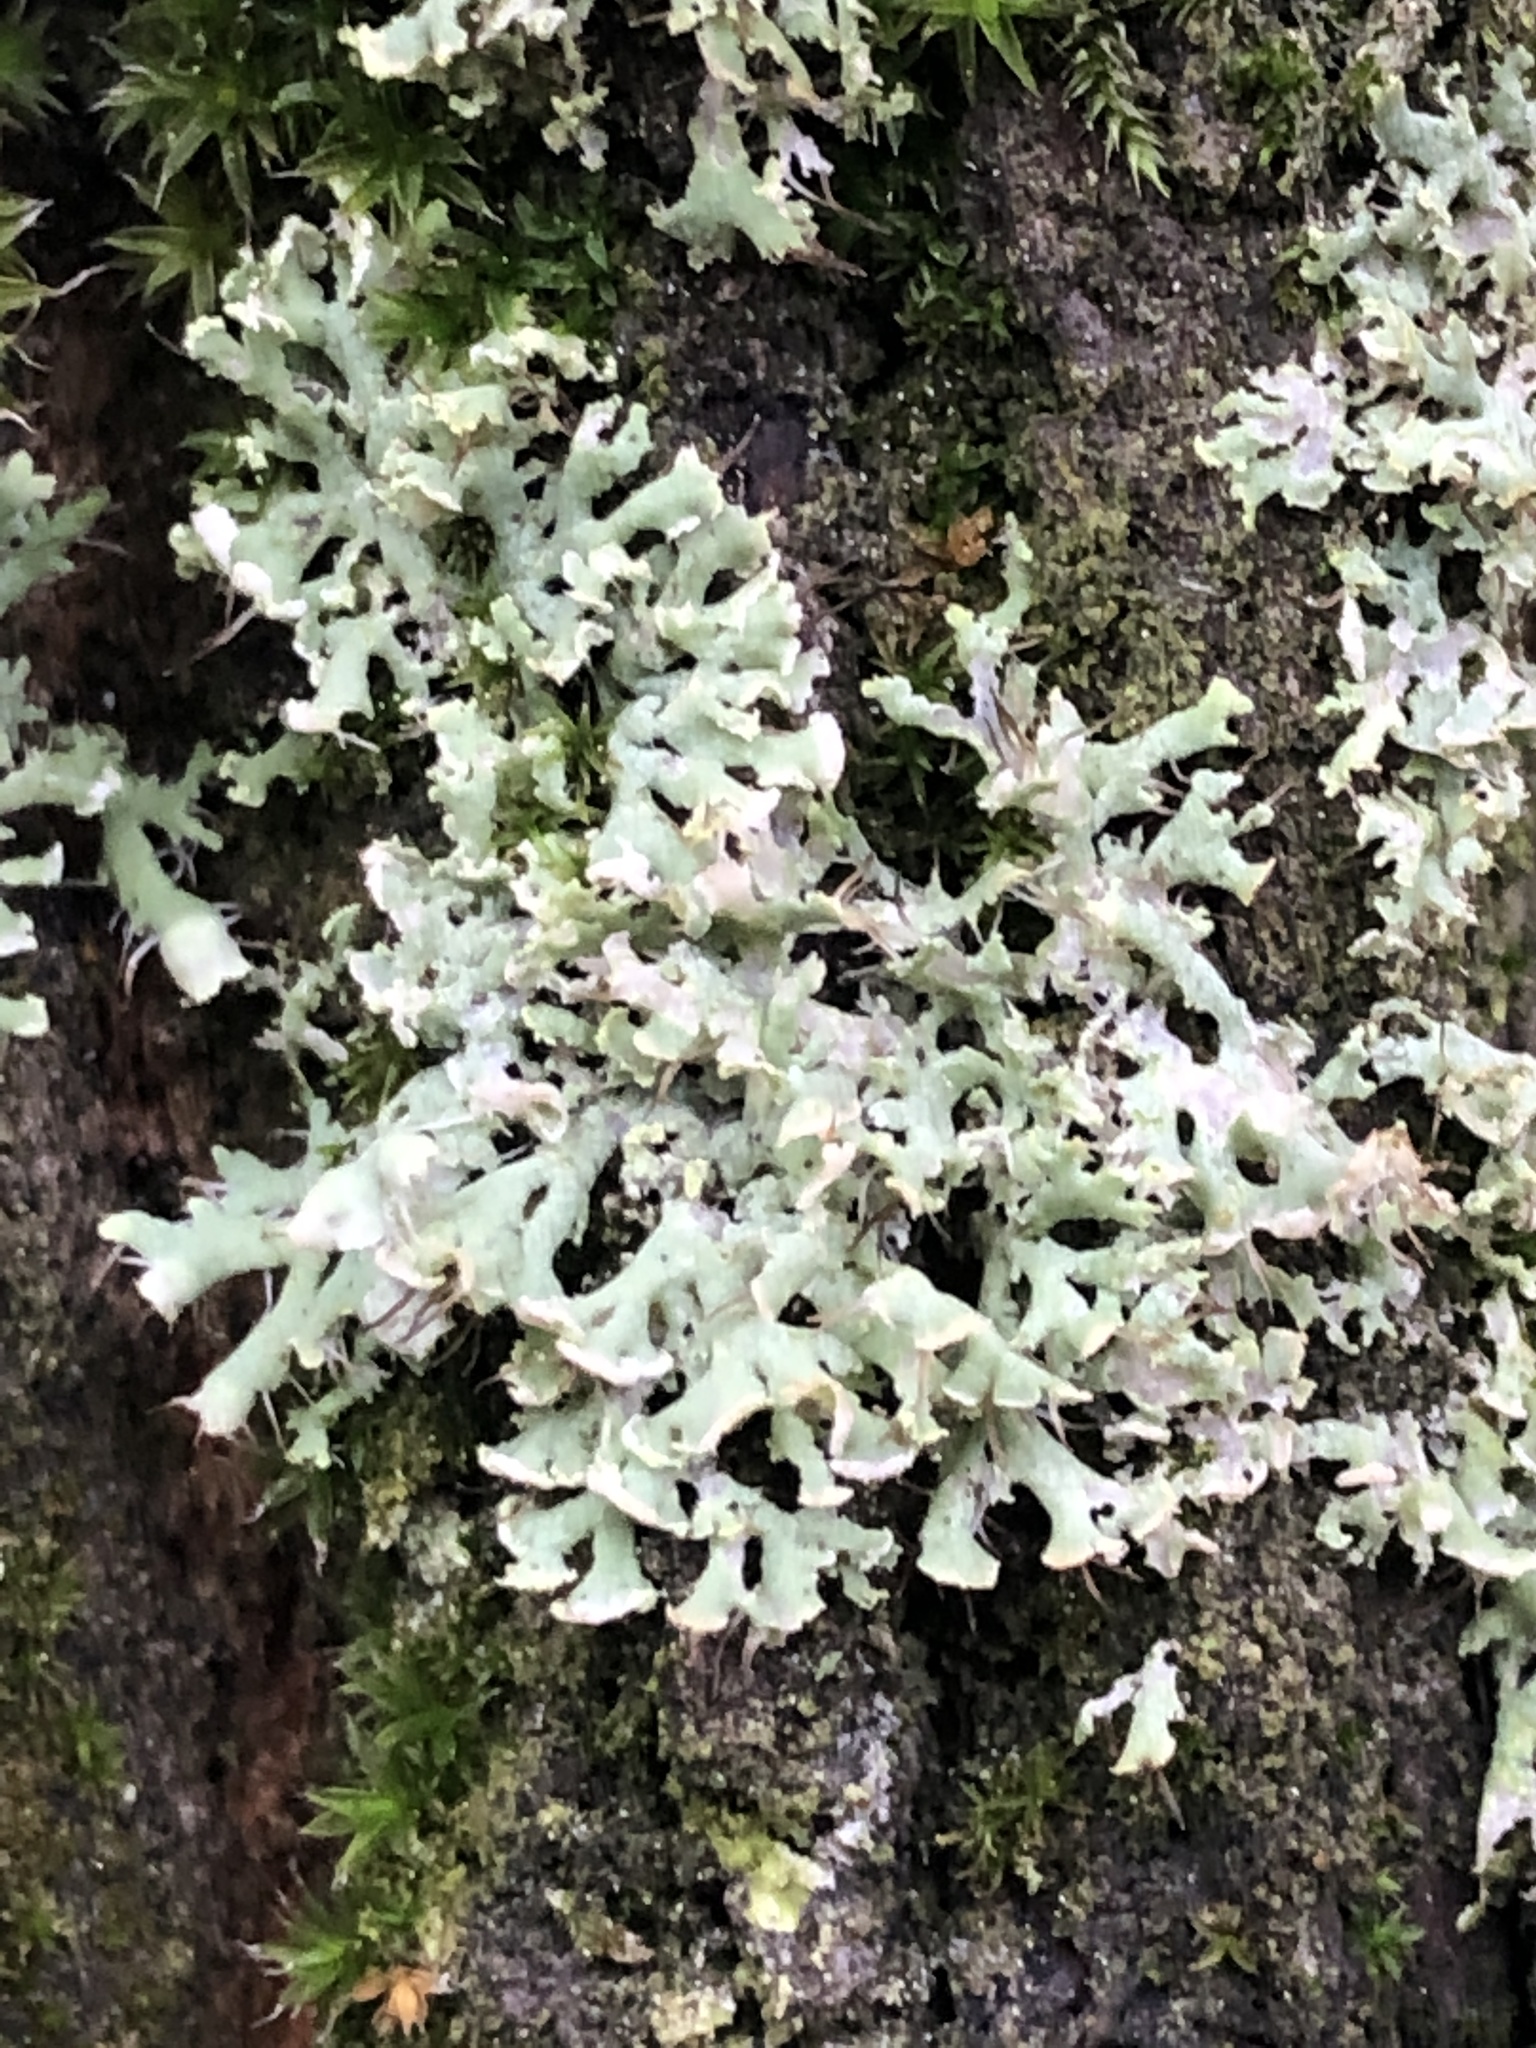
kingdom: Fungi
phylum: Ascomycota
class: Lecanoromycetes
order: Caliciales
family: Physciaceae
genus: Physcia
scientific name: Physcia tenella
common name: Fringed rosette lichen
